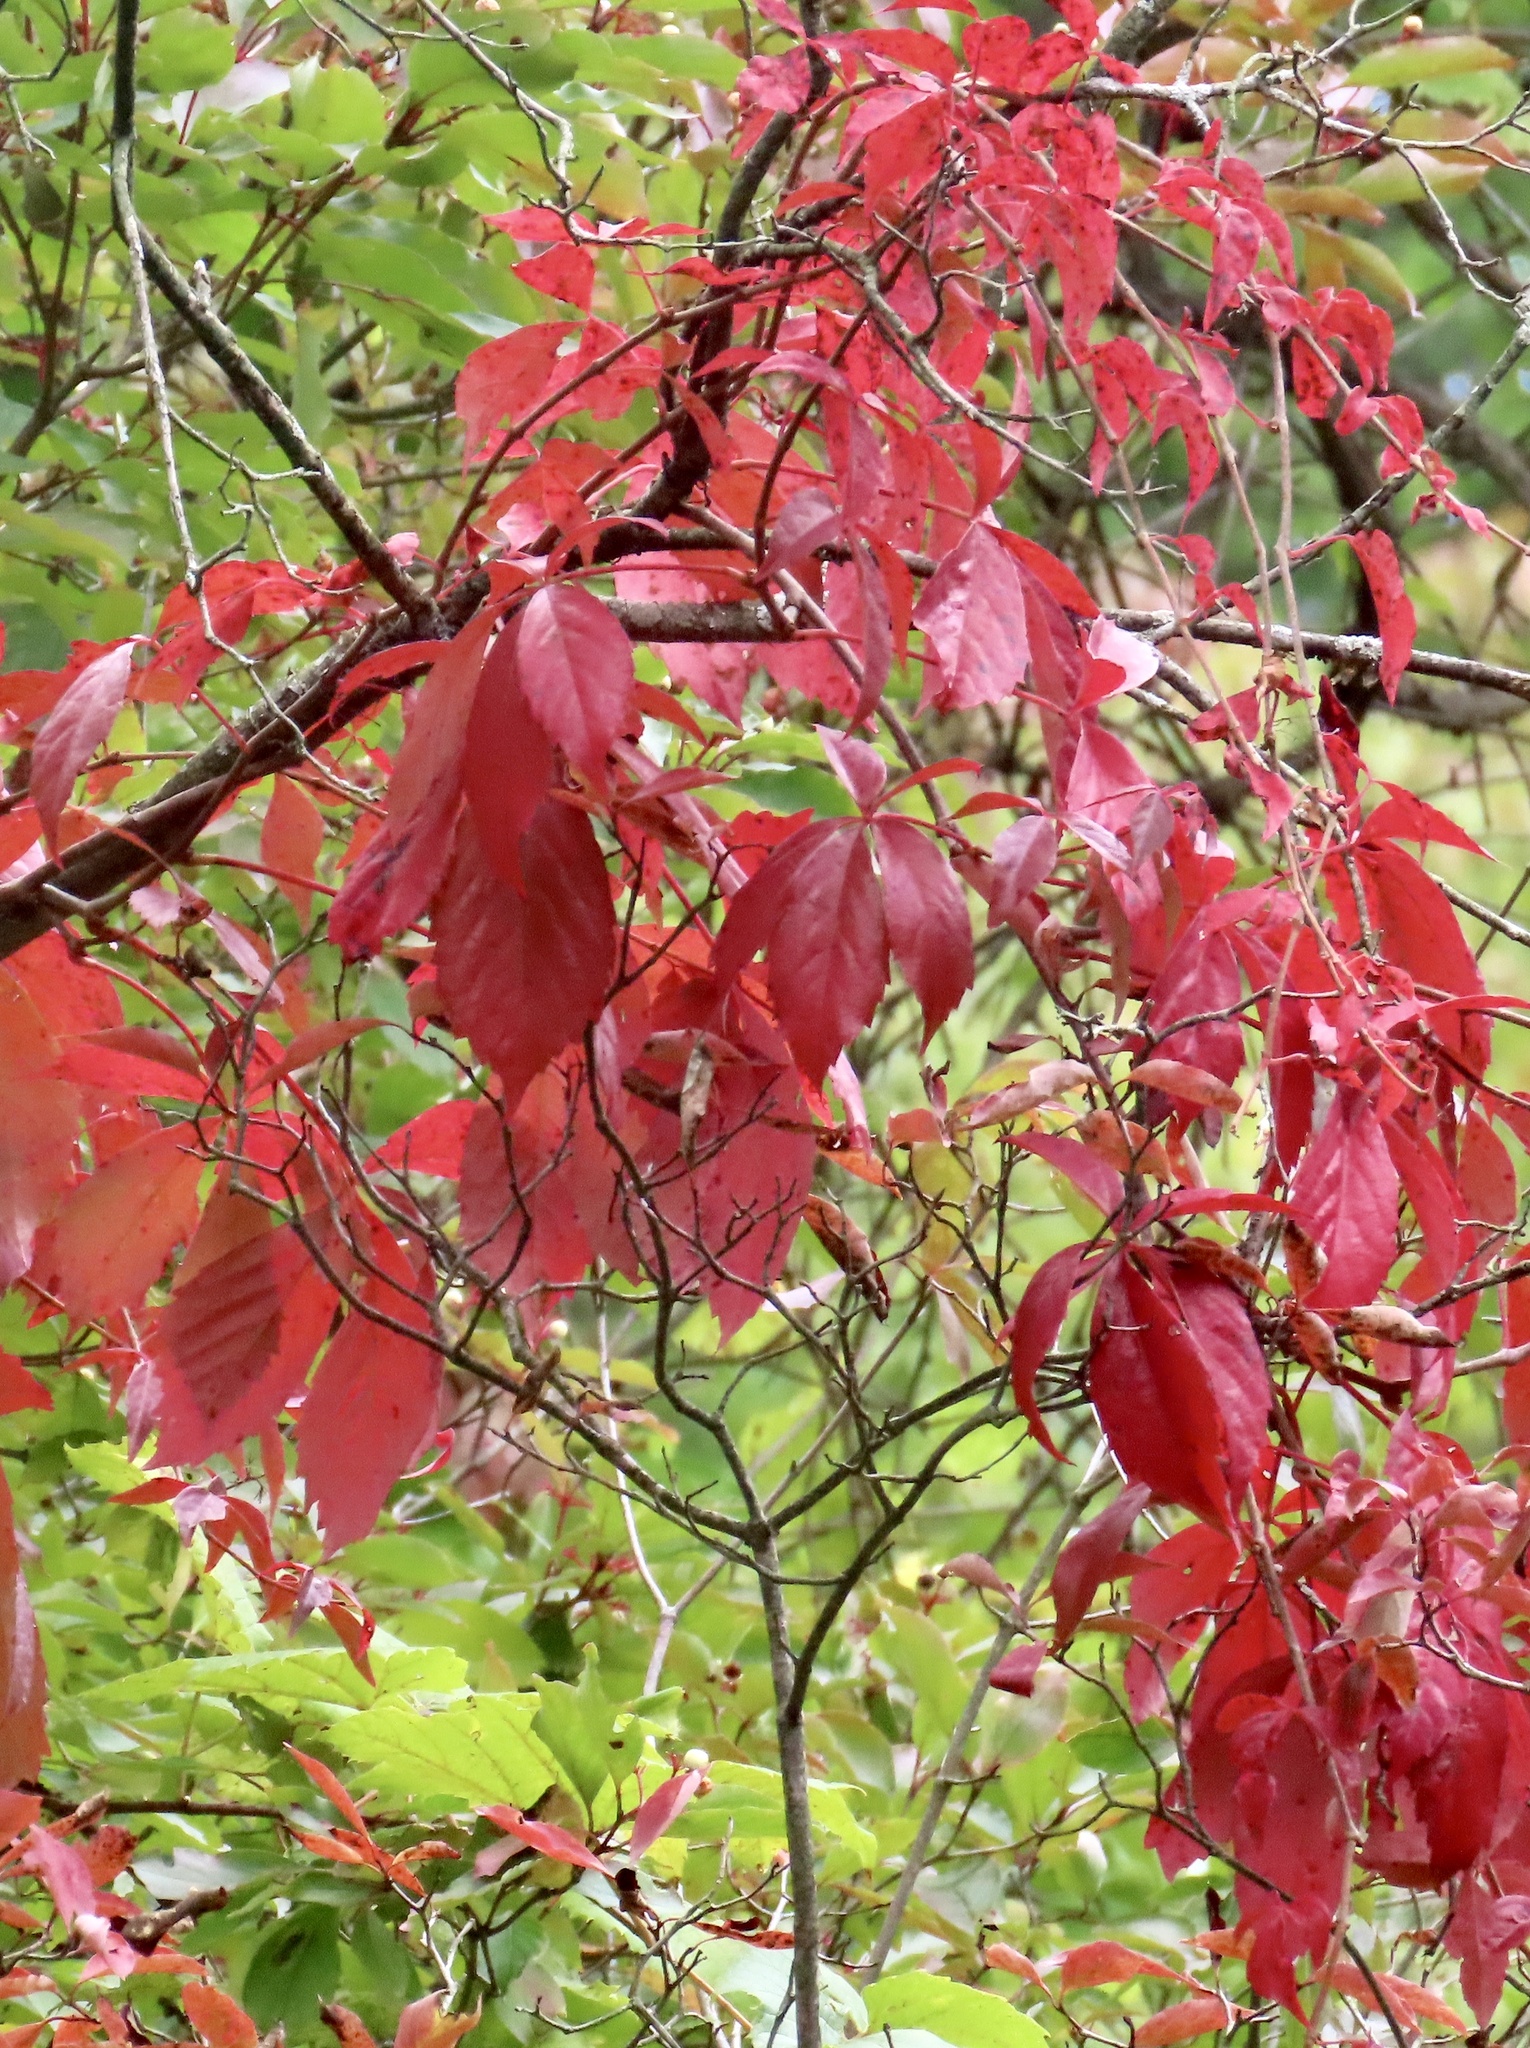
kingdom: Plantae
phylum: Tracheophyta
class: Magnoliopsida
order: Vitales
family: Vitaceae
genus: Parthenocissus
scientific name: Parthenocissus quinquefolia
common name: Virginia-creeper
